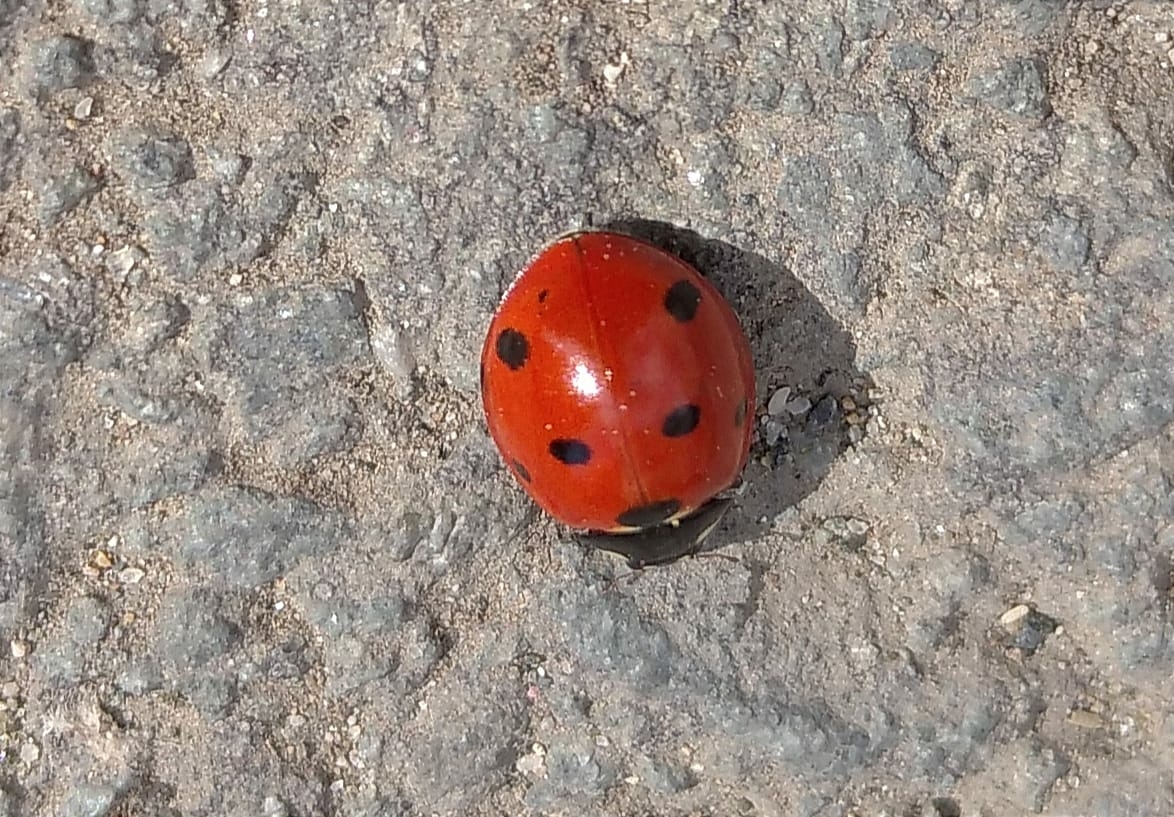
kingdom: Animalia
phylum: Arthropoda
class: Insecta
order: Coleoptera
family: Coccinellidae
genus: Coccinella
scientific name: Coccinella septempunctata
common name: Sevenspotted lady beetle
